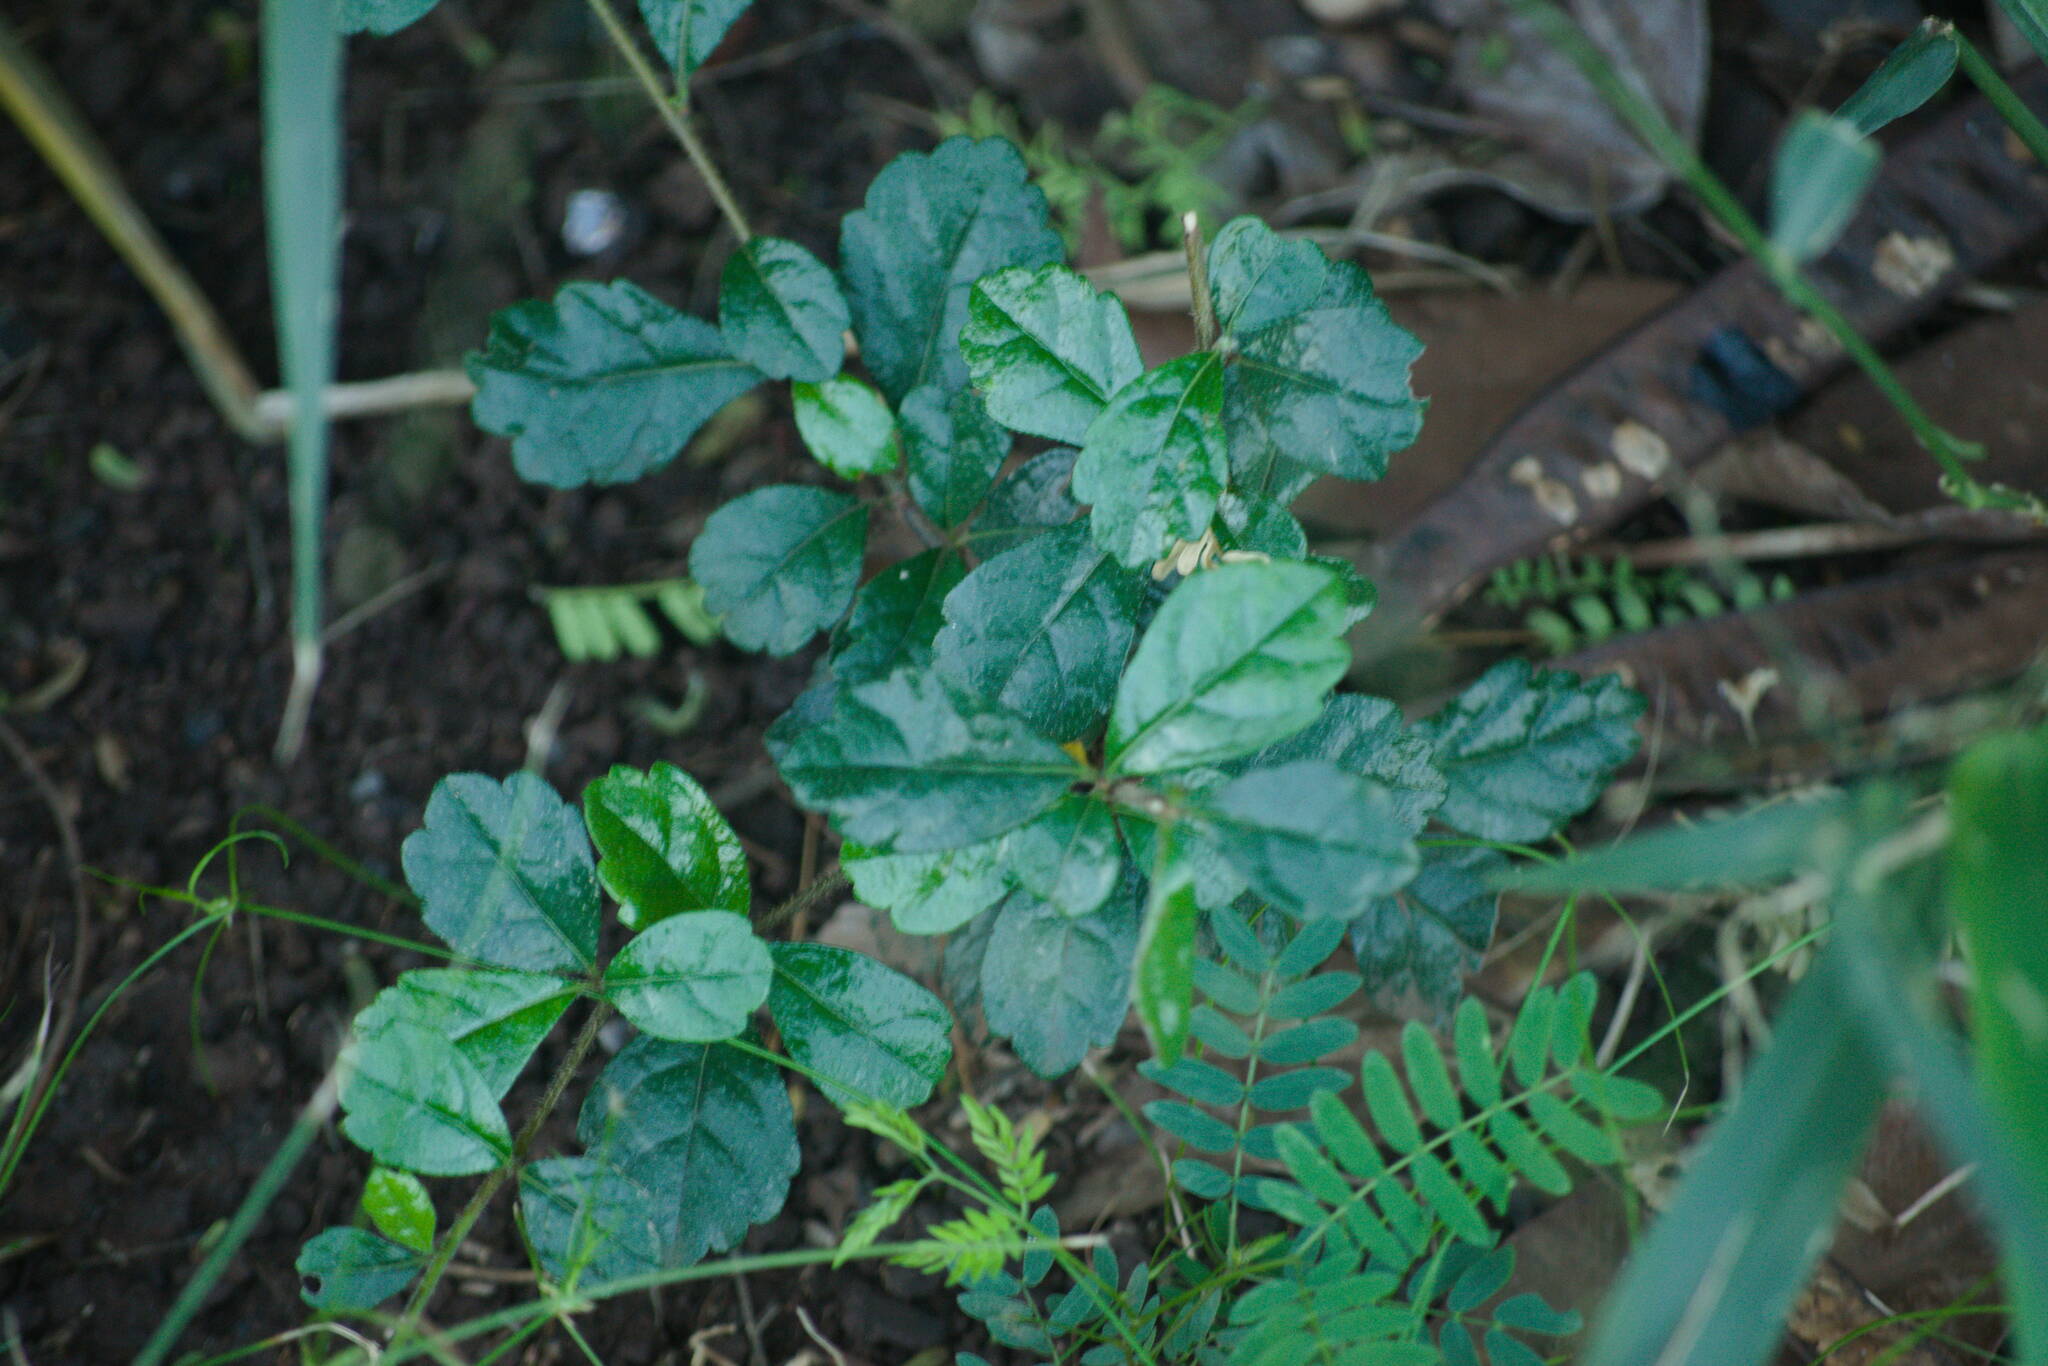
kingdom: Plantae
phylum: Tracheophyta
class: Magnoliopsida
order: Boraginales
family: Ehretiaceae
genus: Ehretia
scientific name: Ehretia microphylla
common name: Fukien-tea
